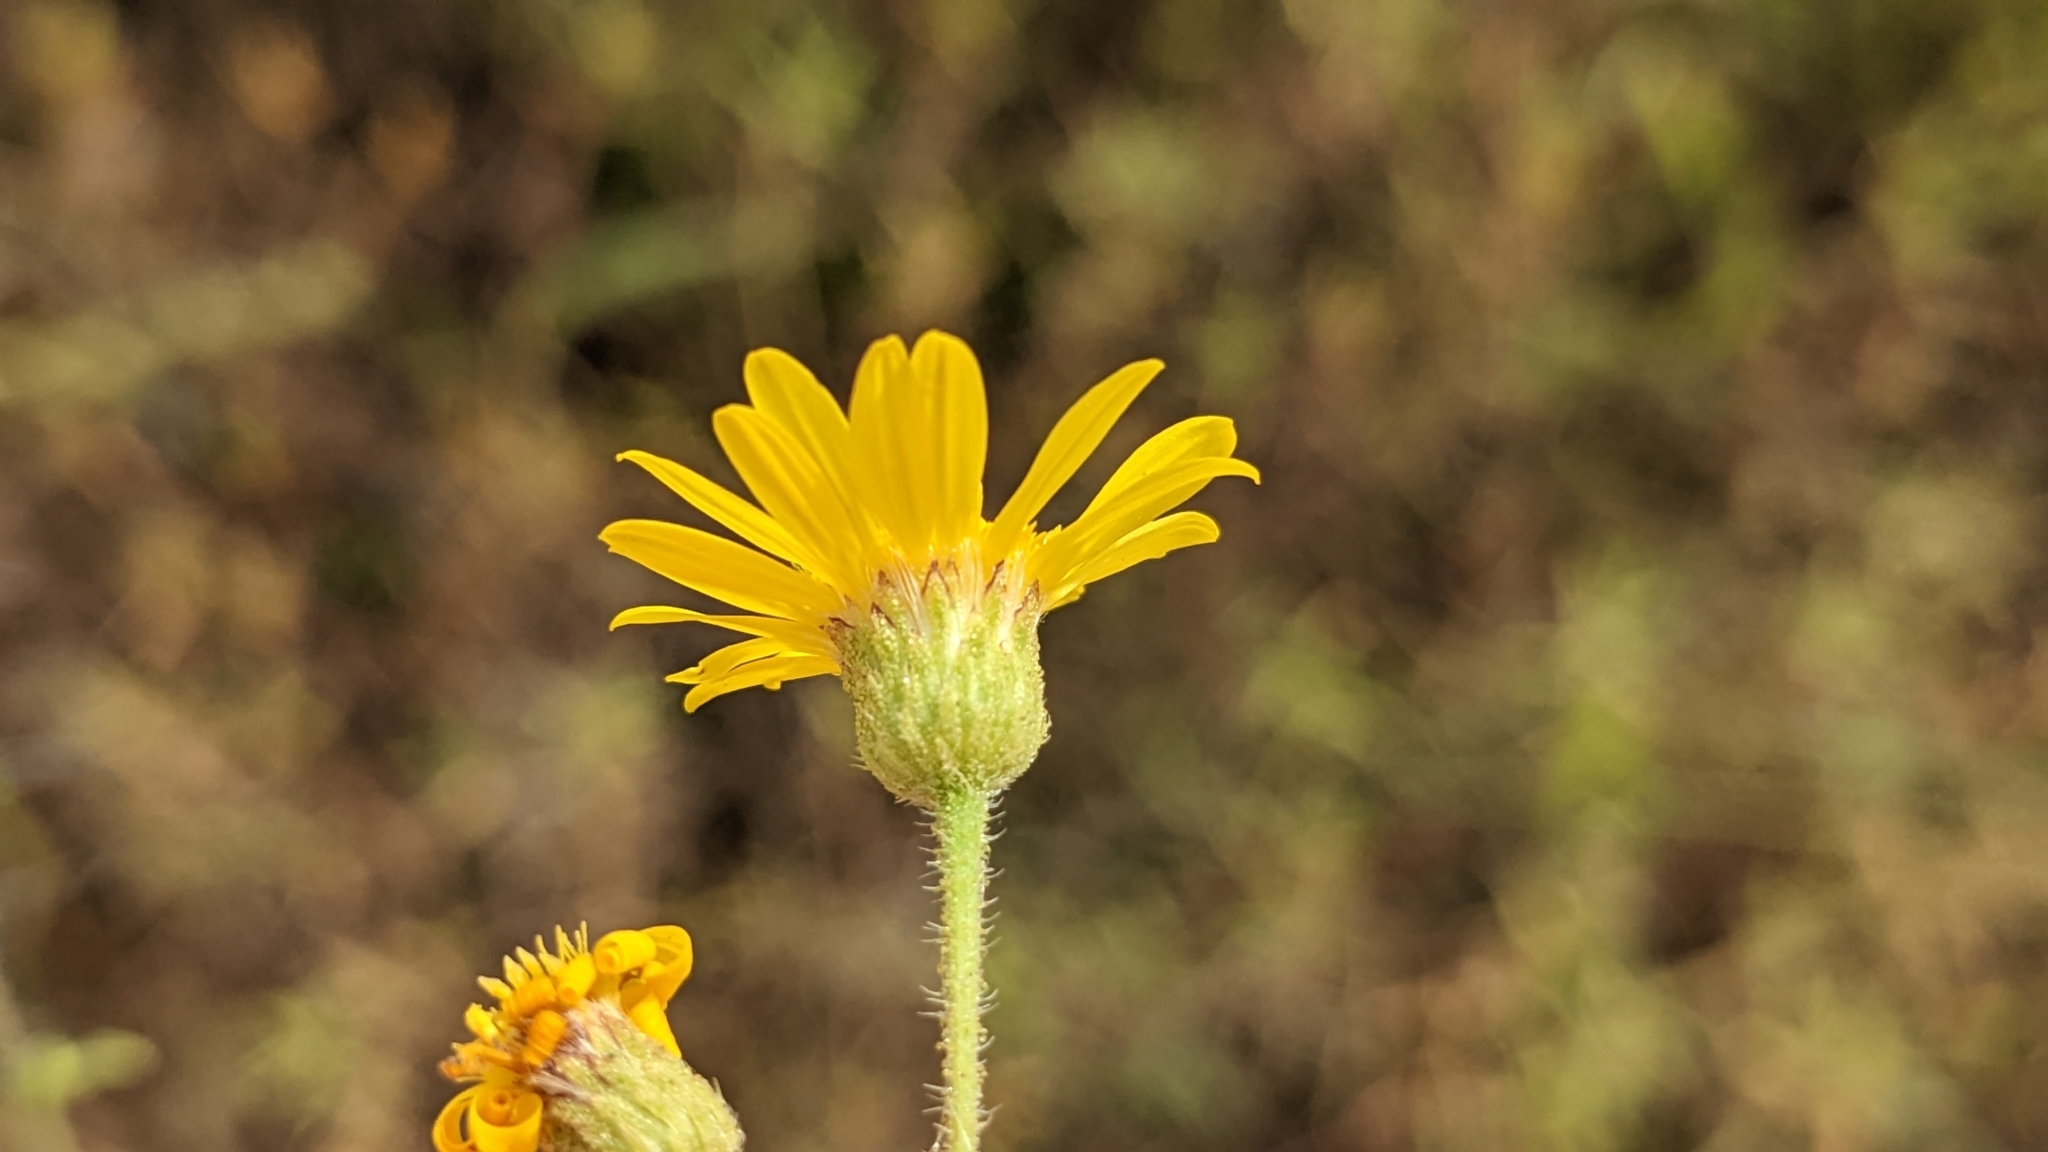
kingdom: Plantae
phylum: Tracheophyta
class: Magnoliopsida
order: Asterales
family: Asteraceae
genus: Heterotheca
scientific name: Heterotheca subaxillaris
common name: Camphorweed
